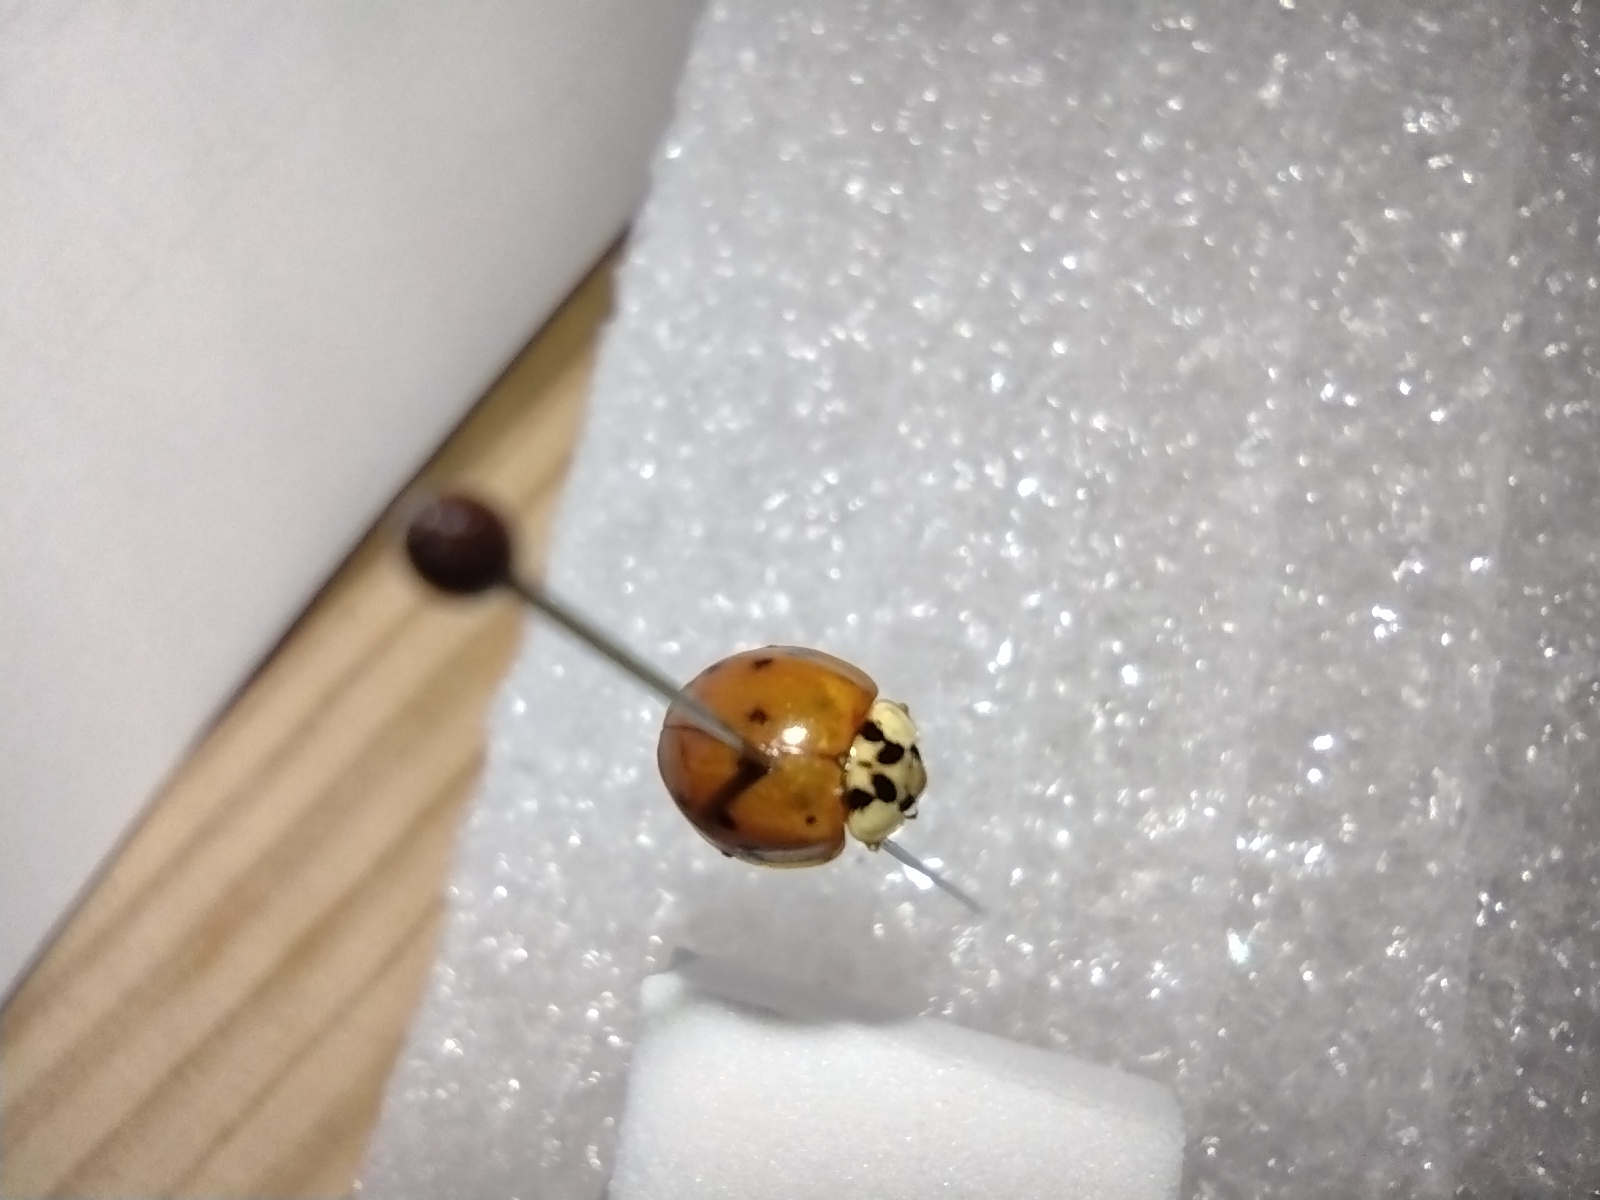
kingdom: Animalia
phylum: Arthropoda
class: Insecta
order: Coleoptera
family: Coccinellidae
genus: Harmonia
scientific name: Harmonia axyridis
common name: Harlequin ladybird
